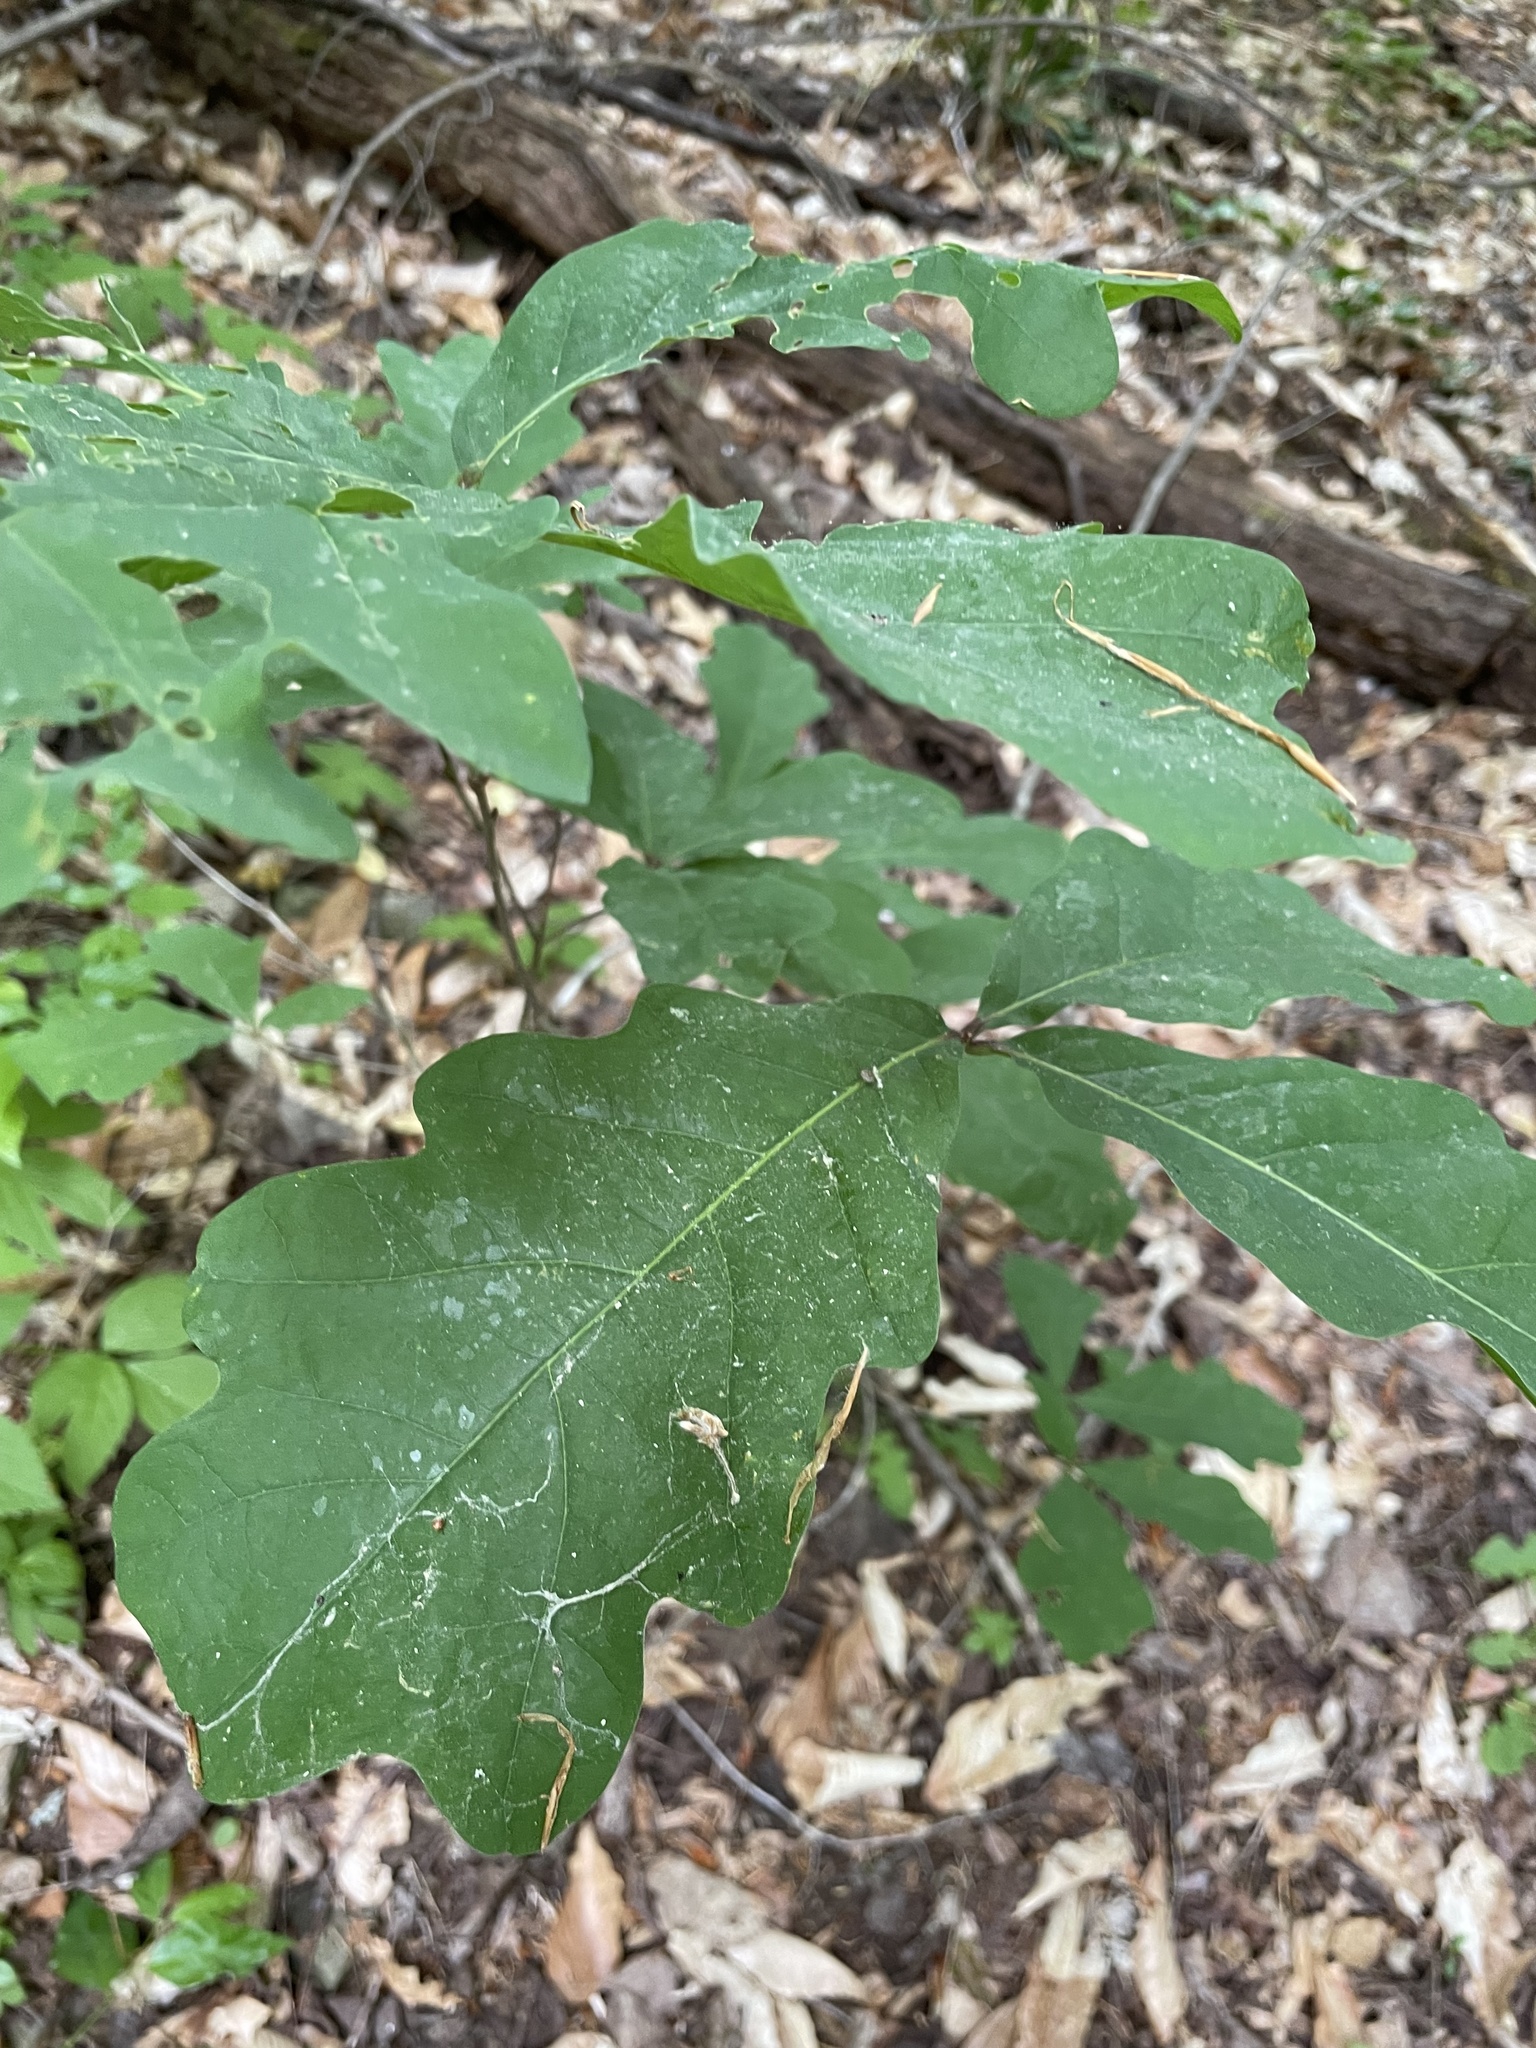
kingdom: Plantae
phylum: Tracheophyta
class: Magnoliopsida
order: Fagales
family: Fagaceae
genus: Quercus
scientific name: Quercus alba
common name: White oak
